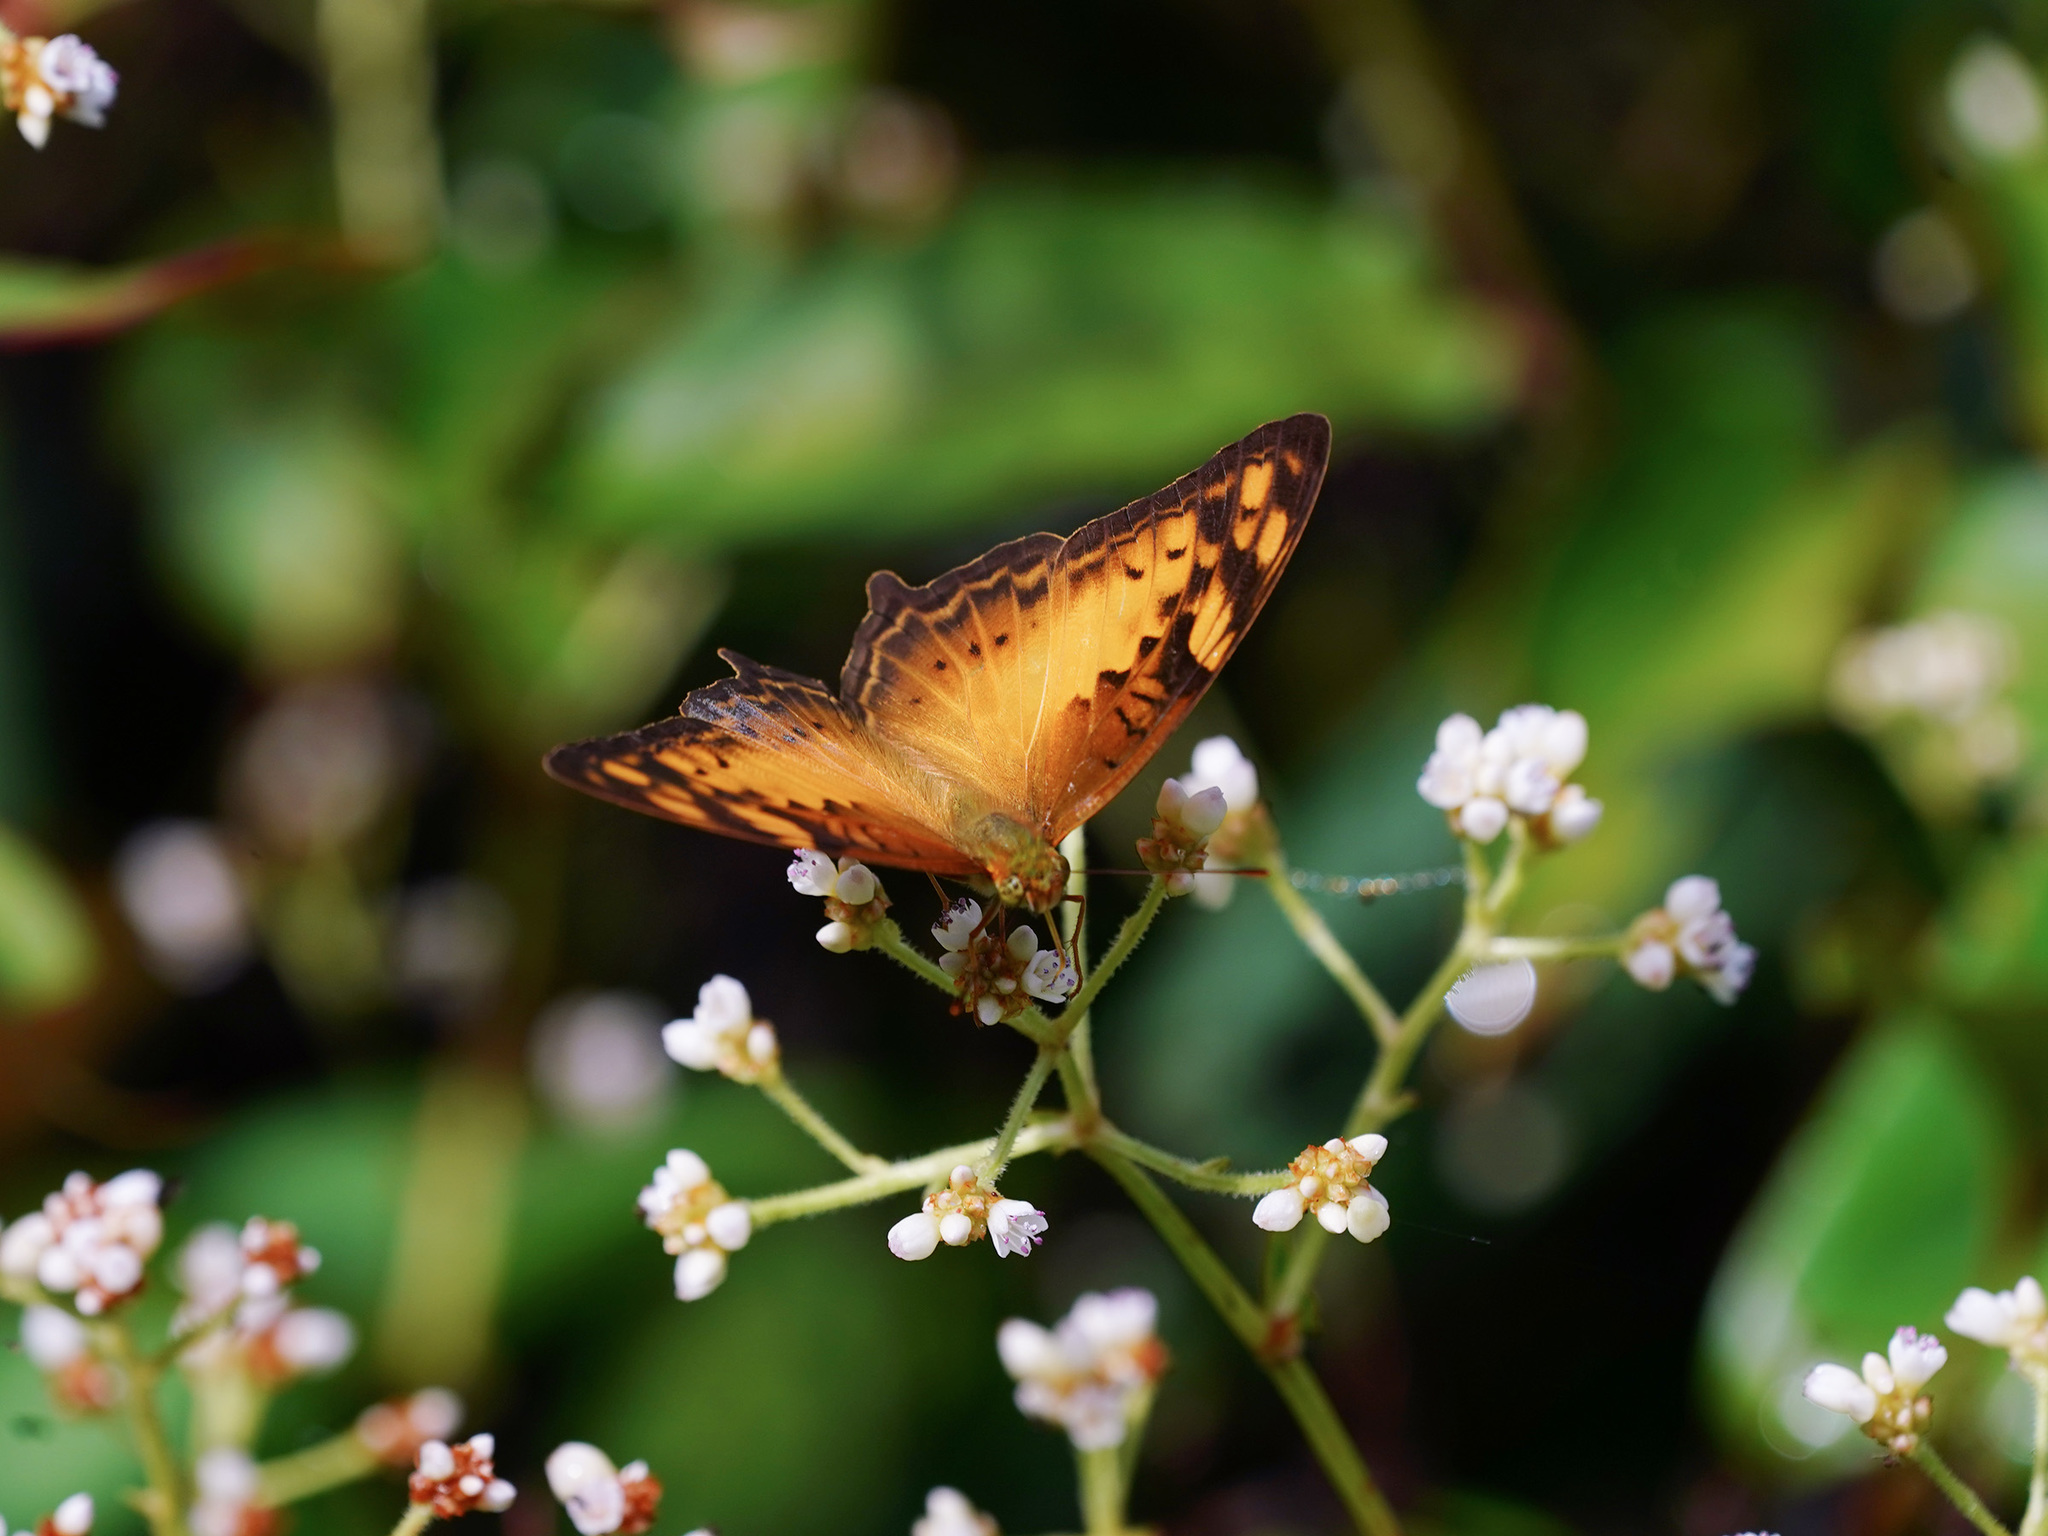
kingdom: Animalia
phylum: Arthropoda
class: Insecta
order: Lepidoptera
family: Nymphalidae
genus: Vagrans
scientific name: Vagrans sinha
